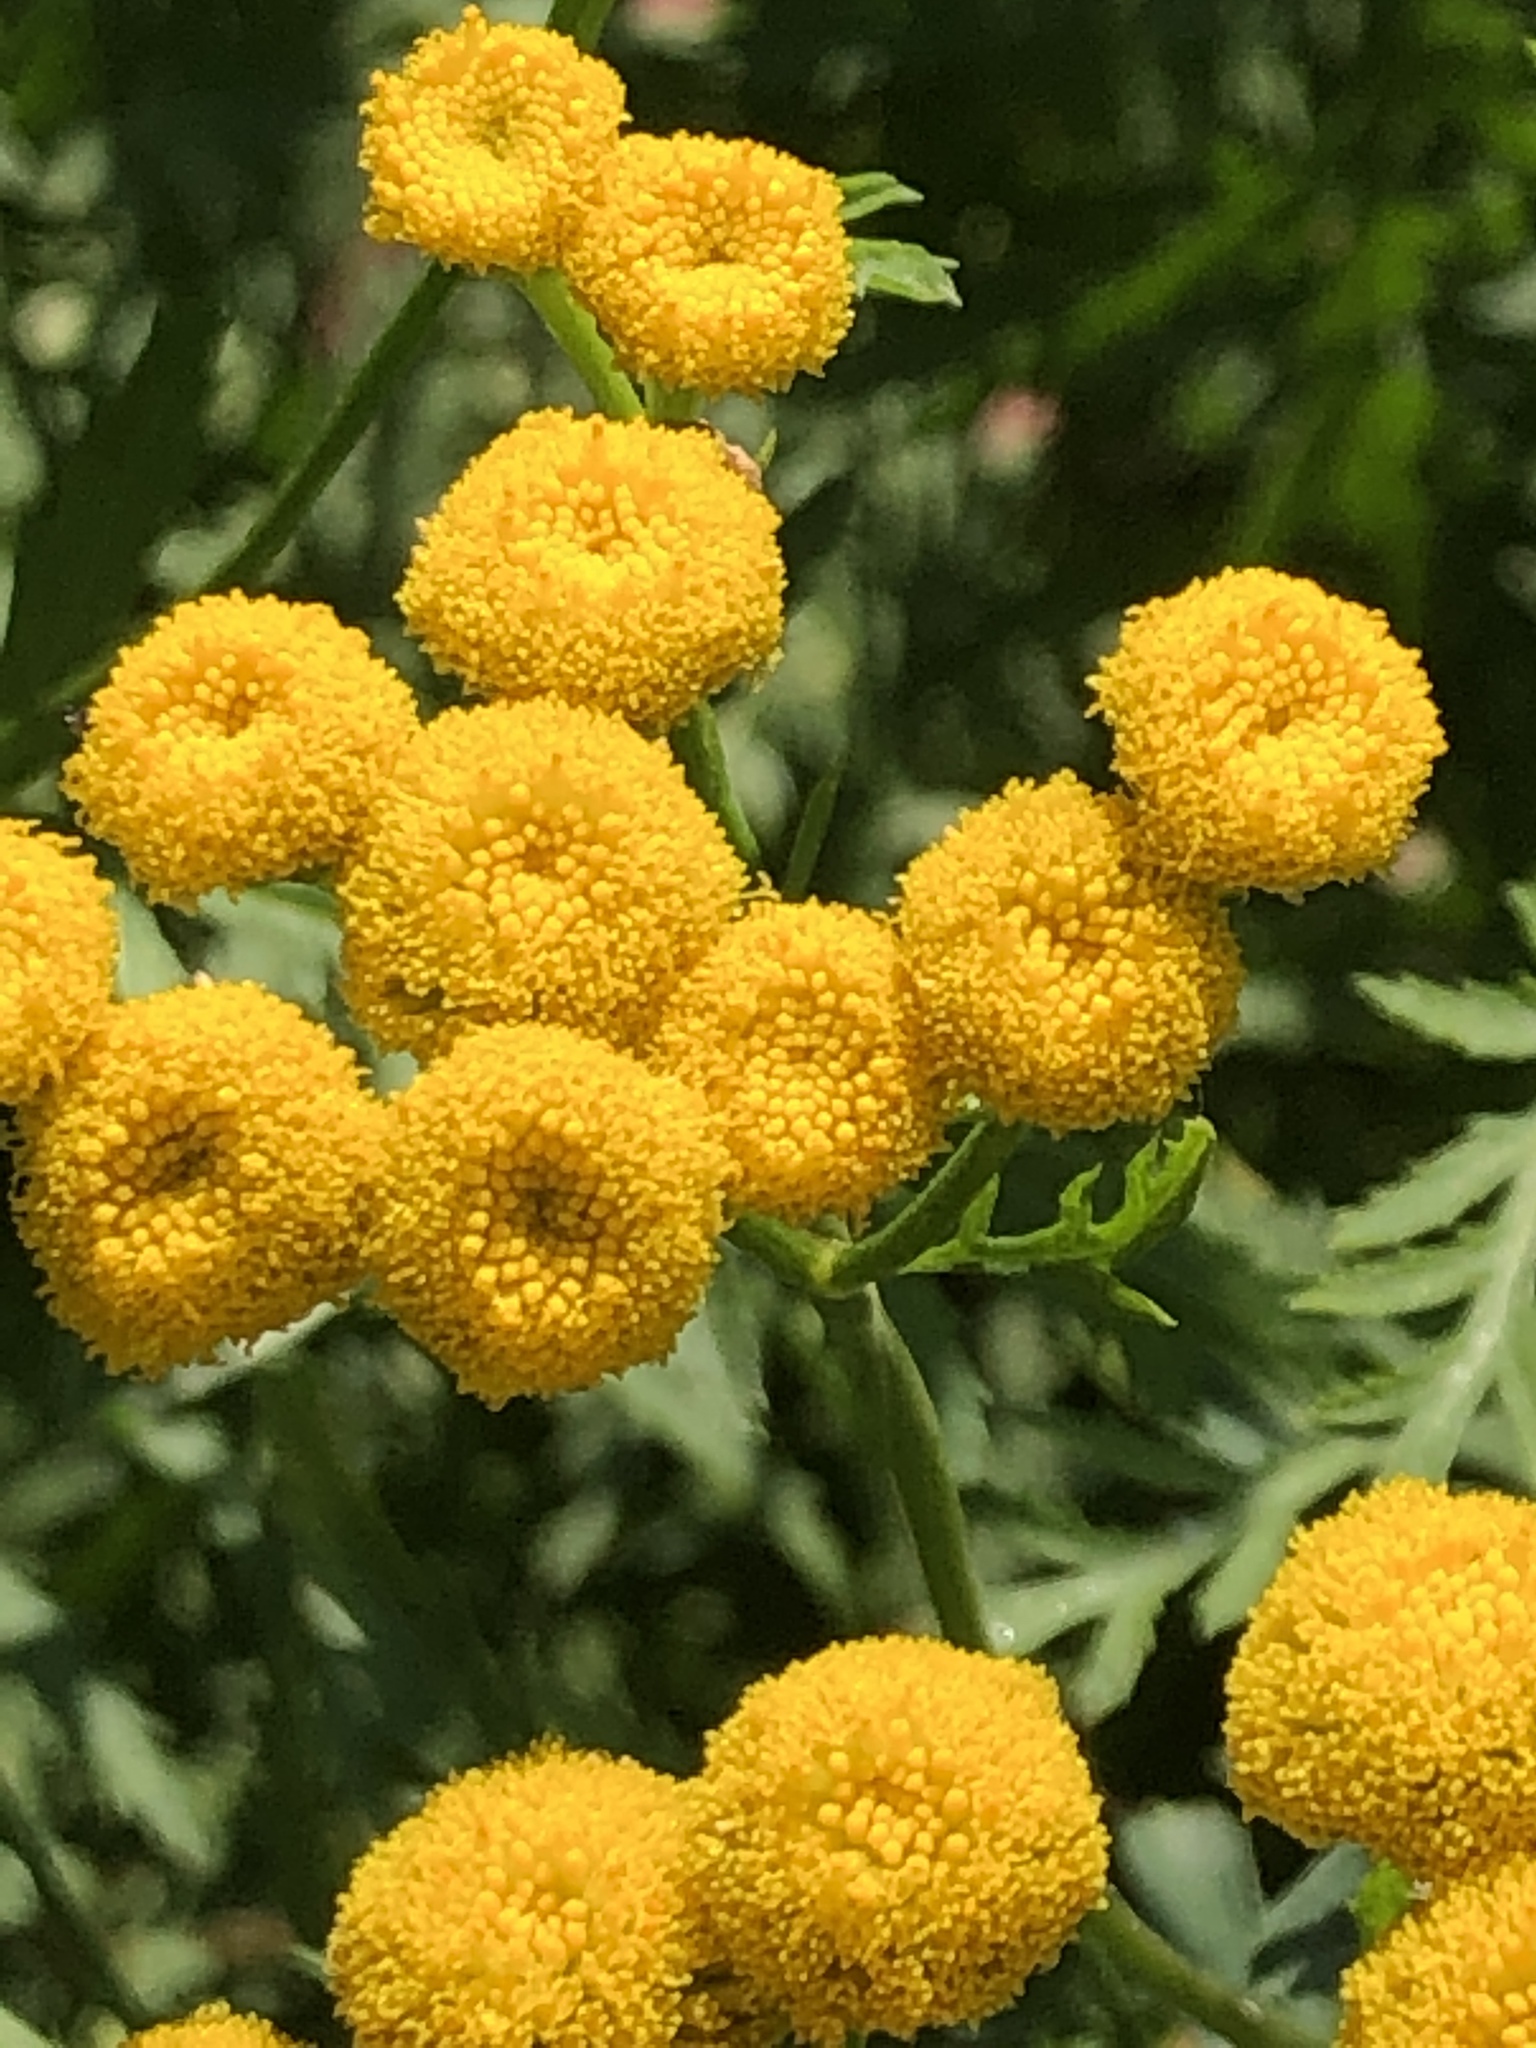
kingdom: Plantae
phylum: Tracheophyta
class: Magnoliopsida
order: Asterales
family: Asteraceae
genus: Tanacetum
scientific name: Tanacetum vulgare
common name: Common tansy
